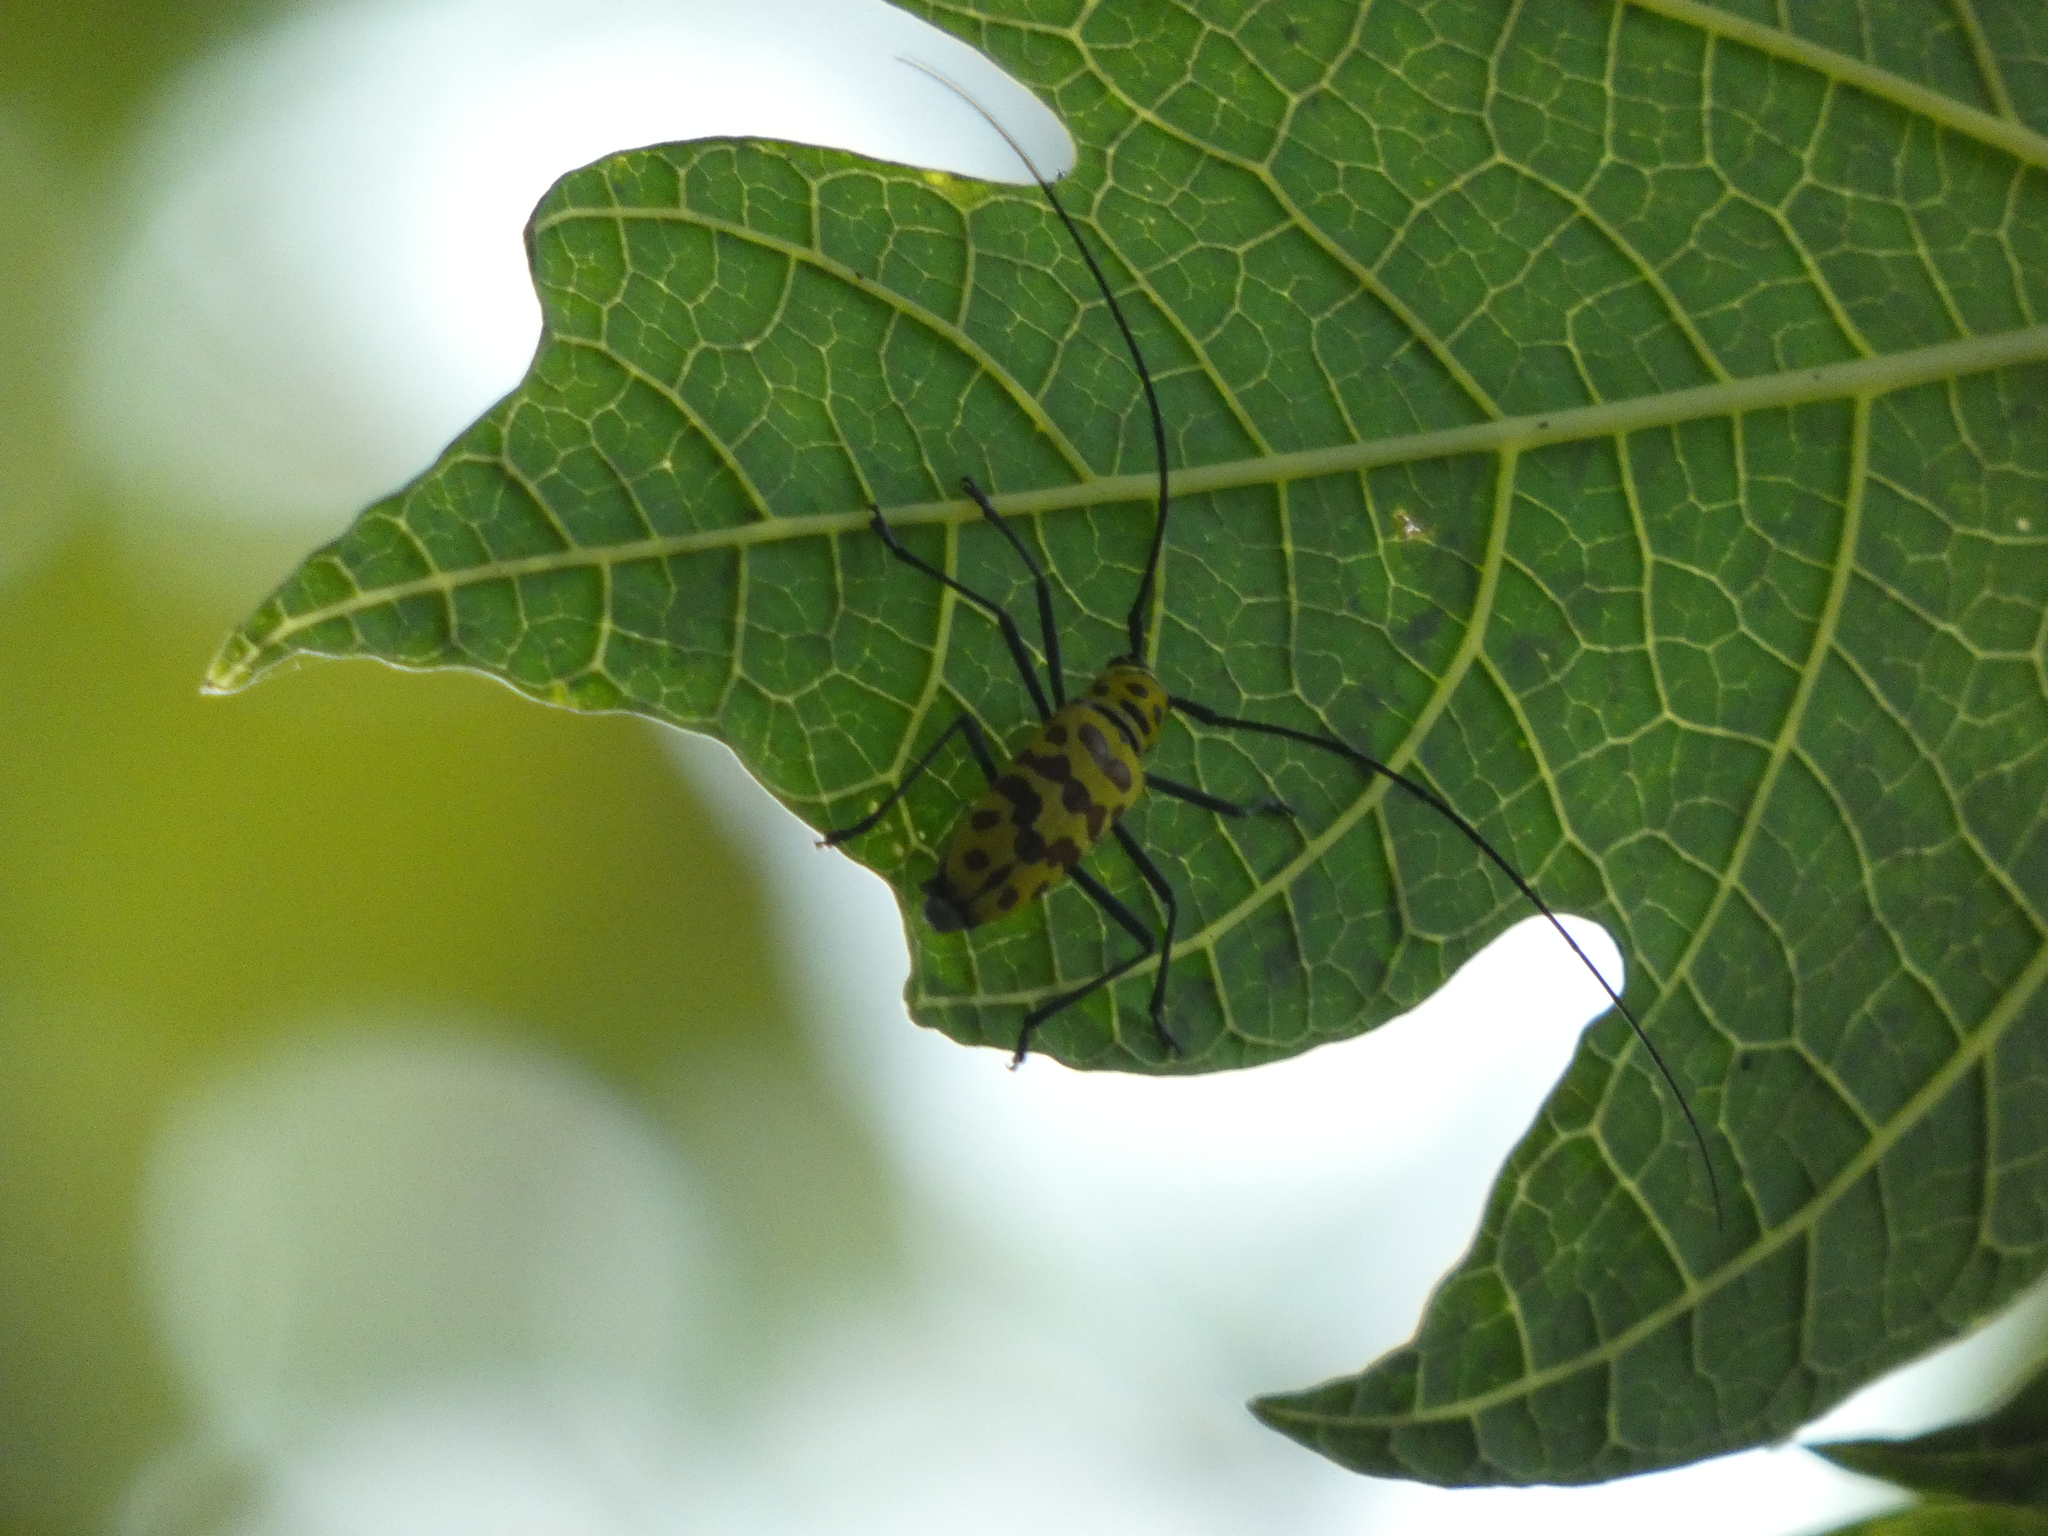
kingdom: Animalia
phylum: Arthropoda
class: Insecta
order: Coleoptera
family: Cerambycidae
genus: Gerania
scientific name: Gerania boscii
